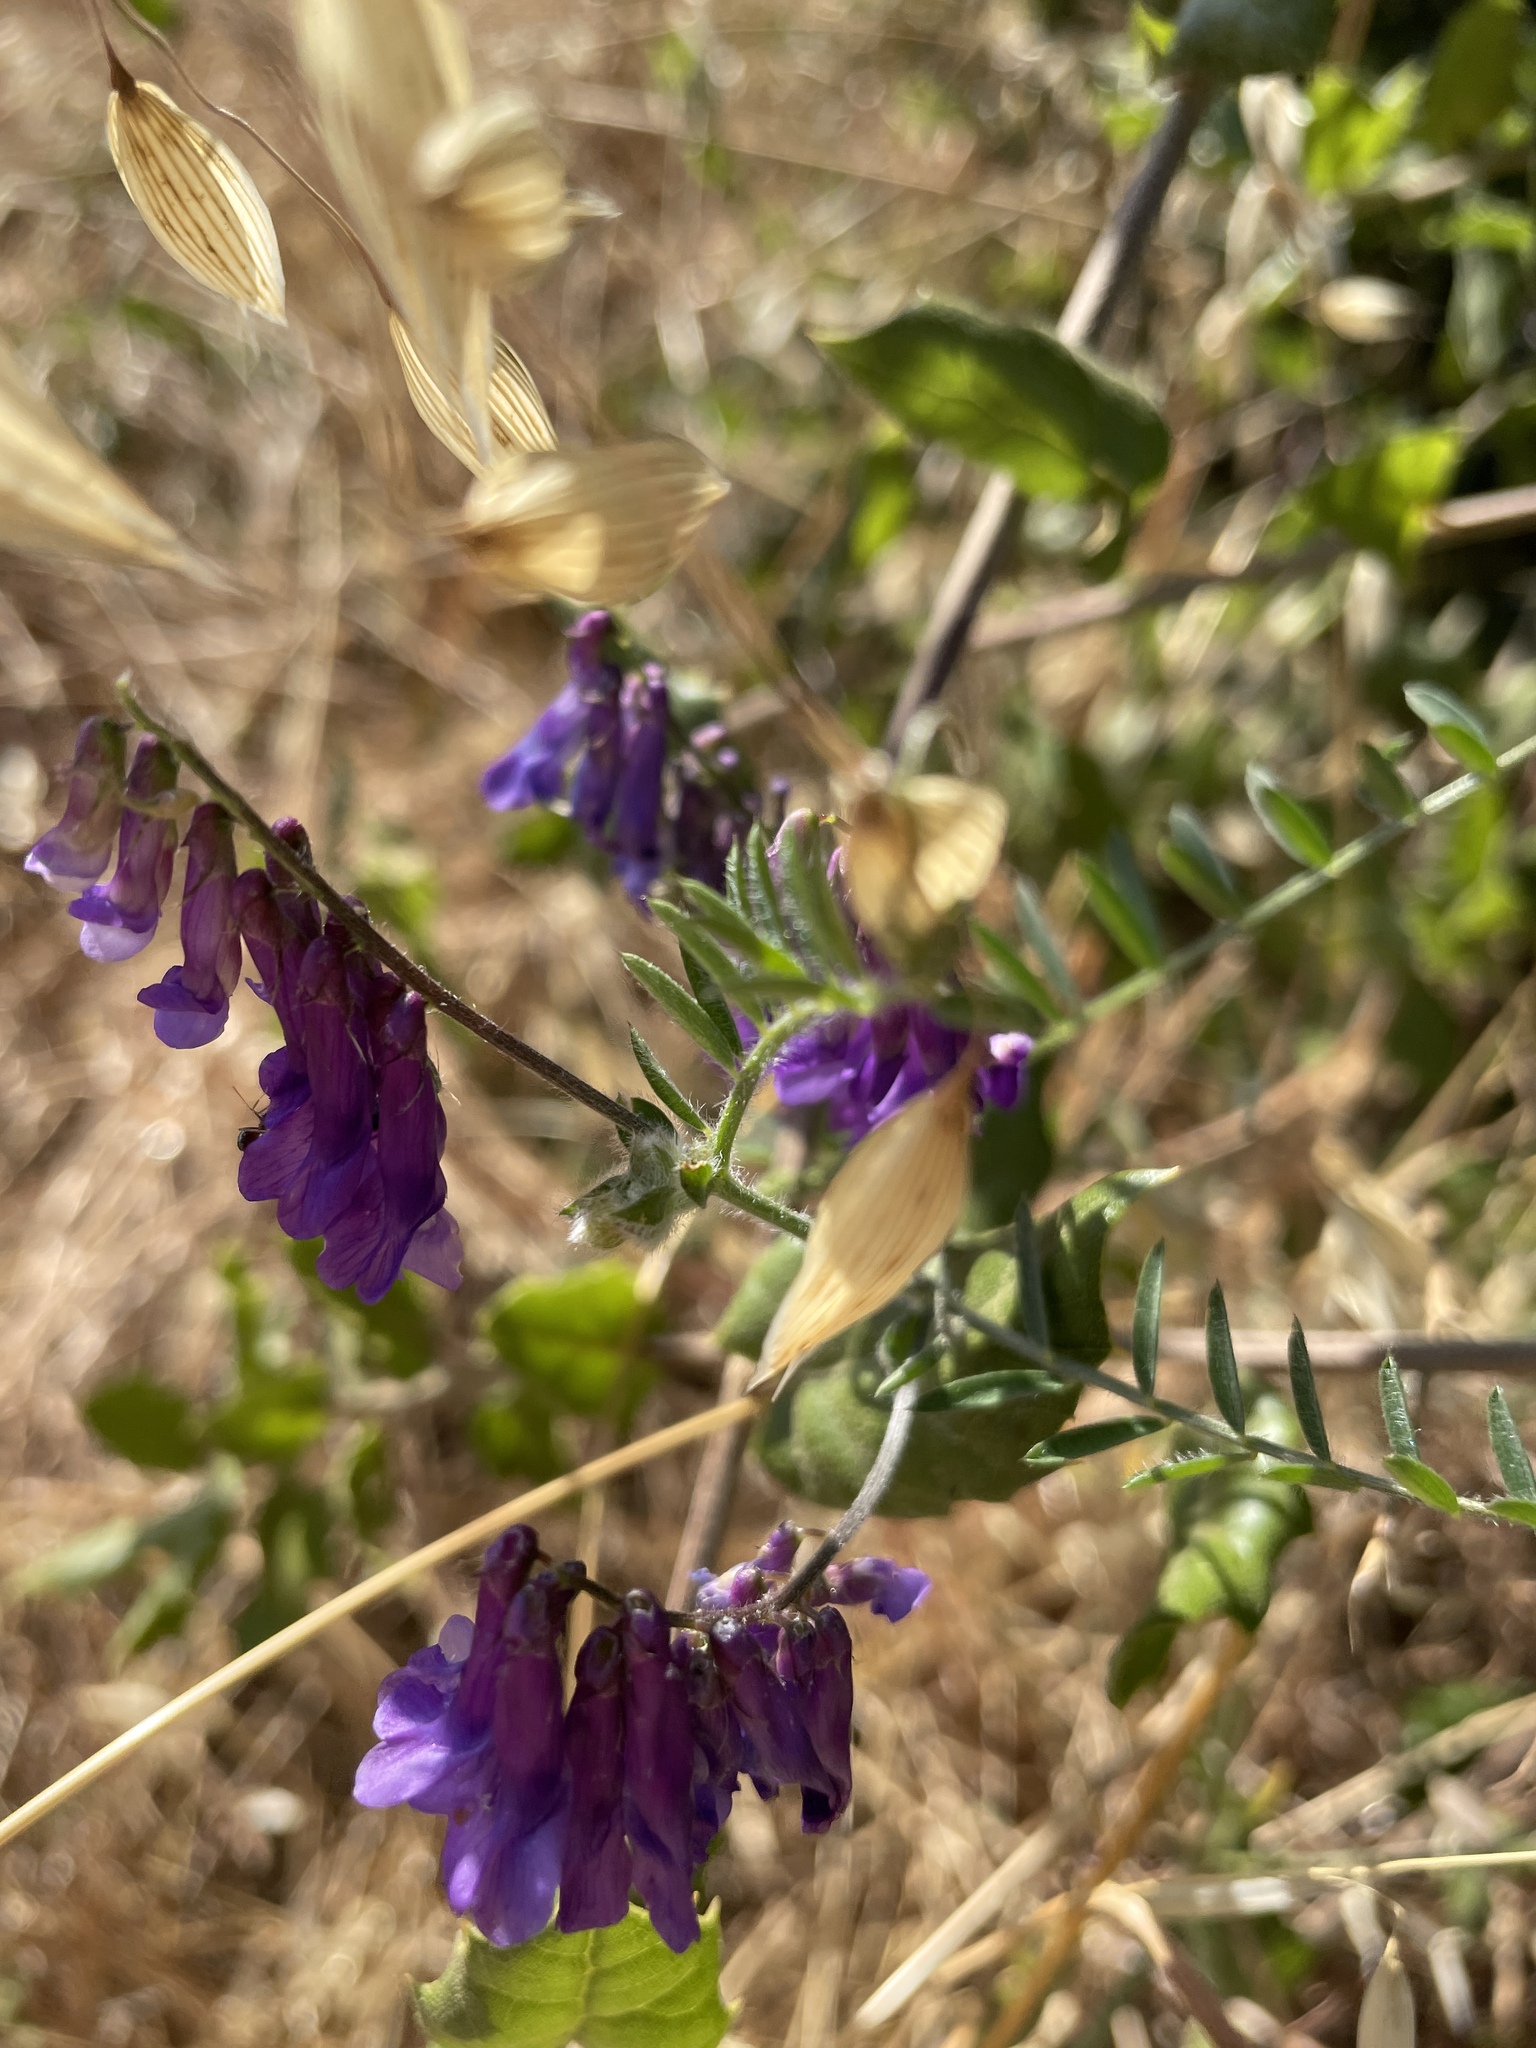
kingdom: Plantae
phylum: Tracheophyta
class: Magnoliopsida
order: Fabales
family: Fabaceae
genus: Vicia
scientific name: Vicia villosa
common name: Fodder vetch
